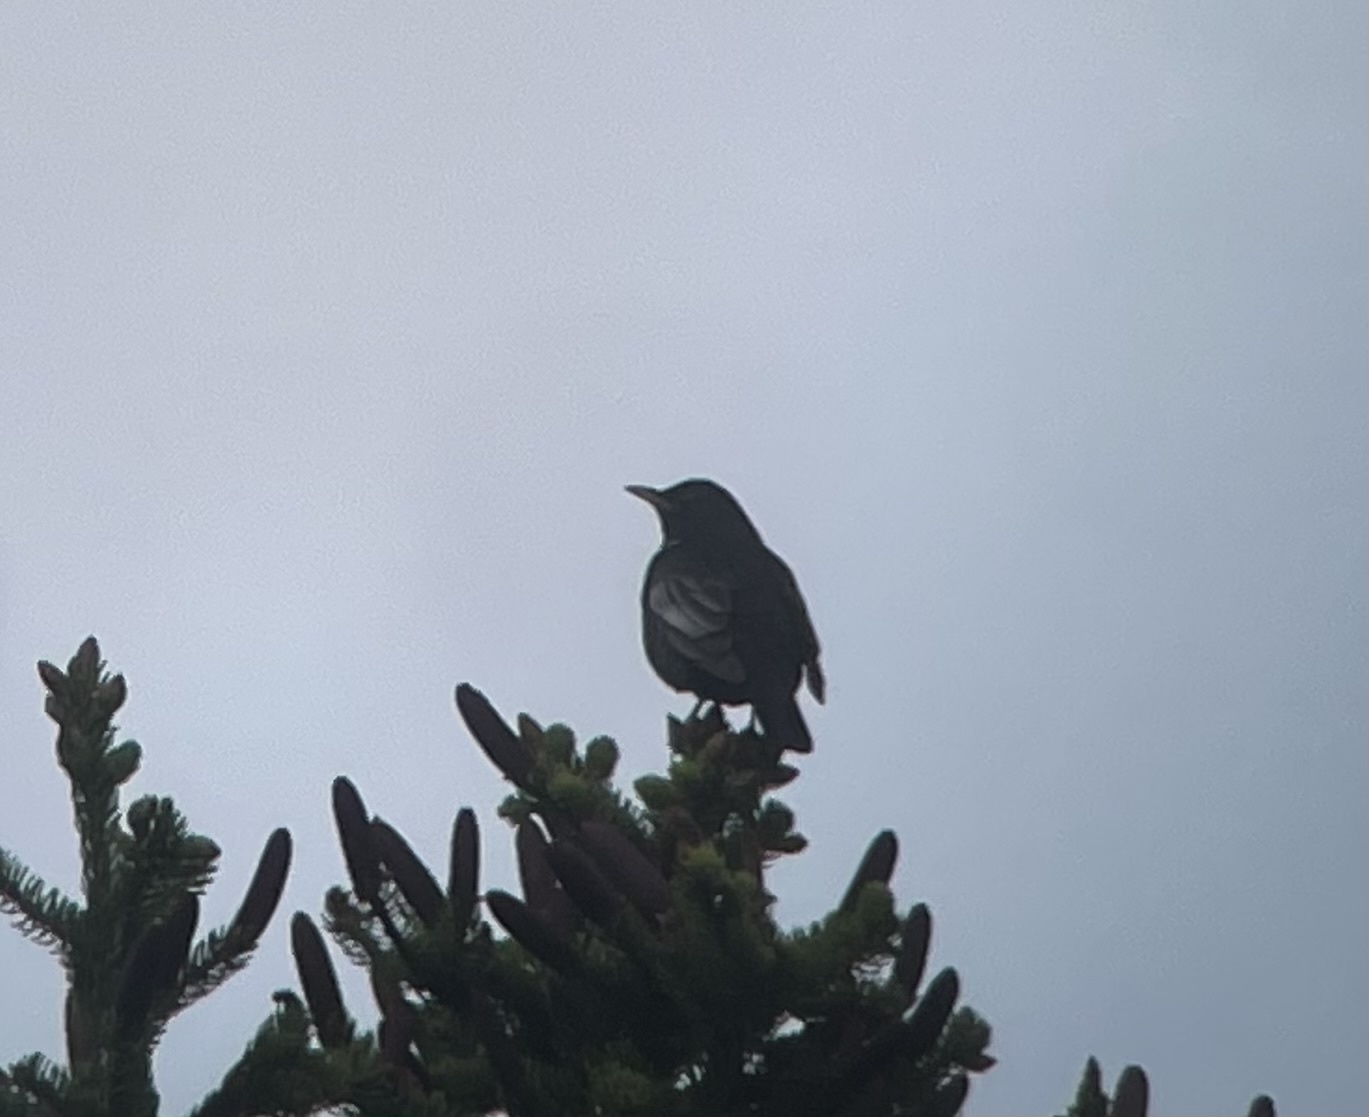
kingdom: Animalia
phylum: Chordata
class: Aves
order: Passeriformes
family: Turdidae
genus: Turdus
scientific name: Turdus torquatus
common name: Ring ouzel
